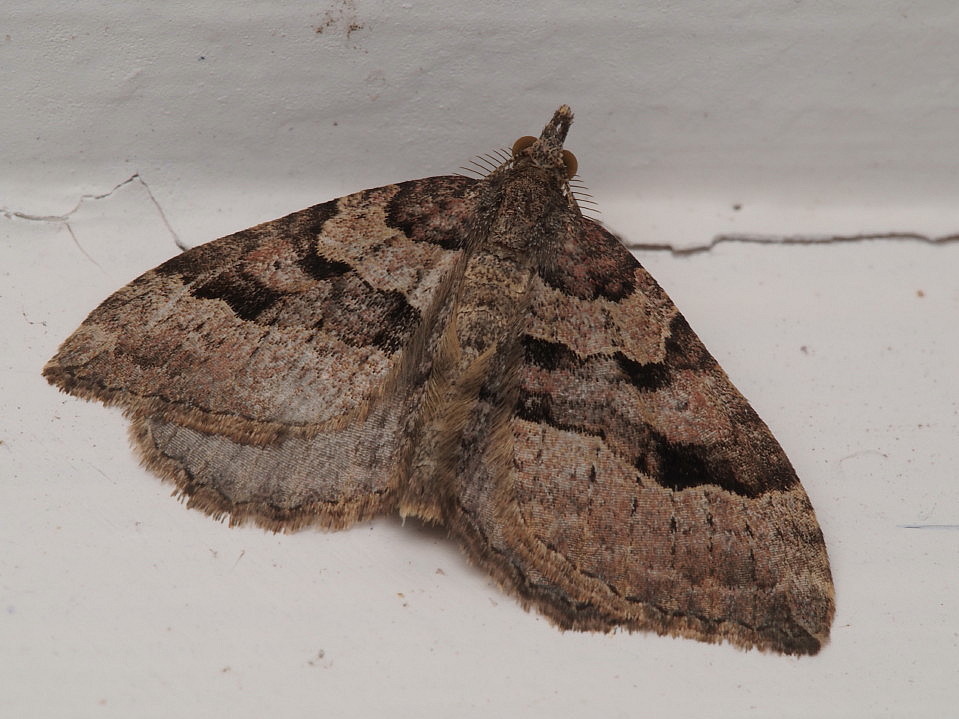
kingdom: Animalia
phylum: Arthropoda
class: Insecta
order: Lepidoptera
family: Geometridae
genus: Epyaxa
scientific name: Epyaxa rosearia
